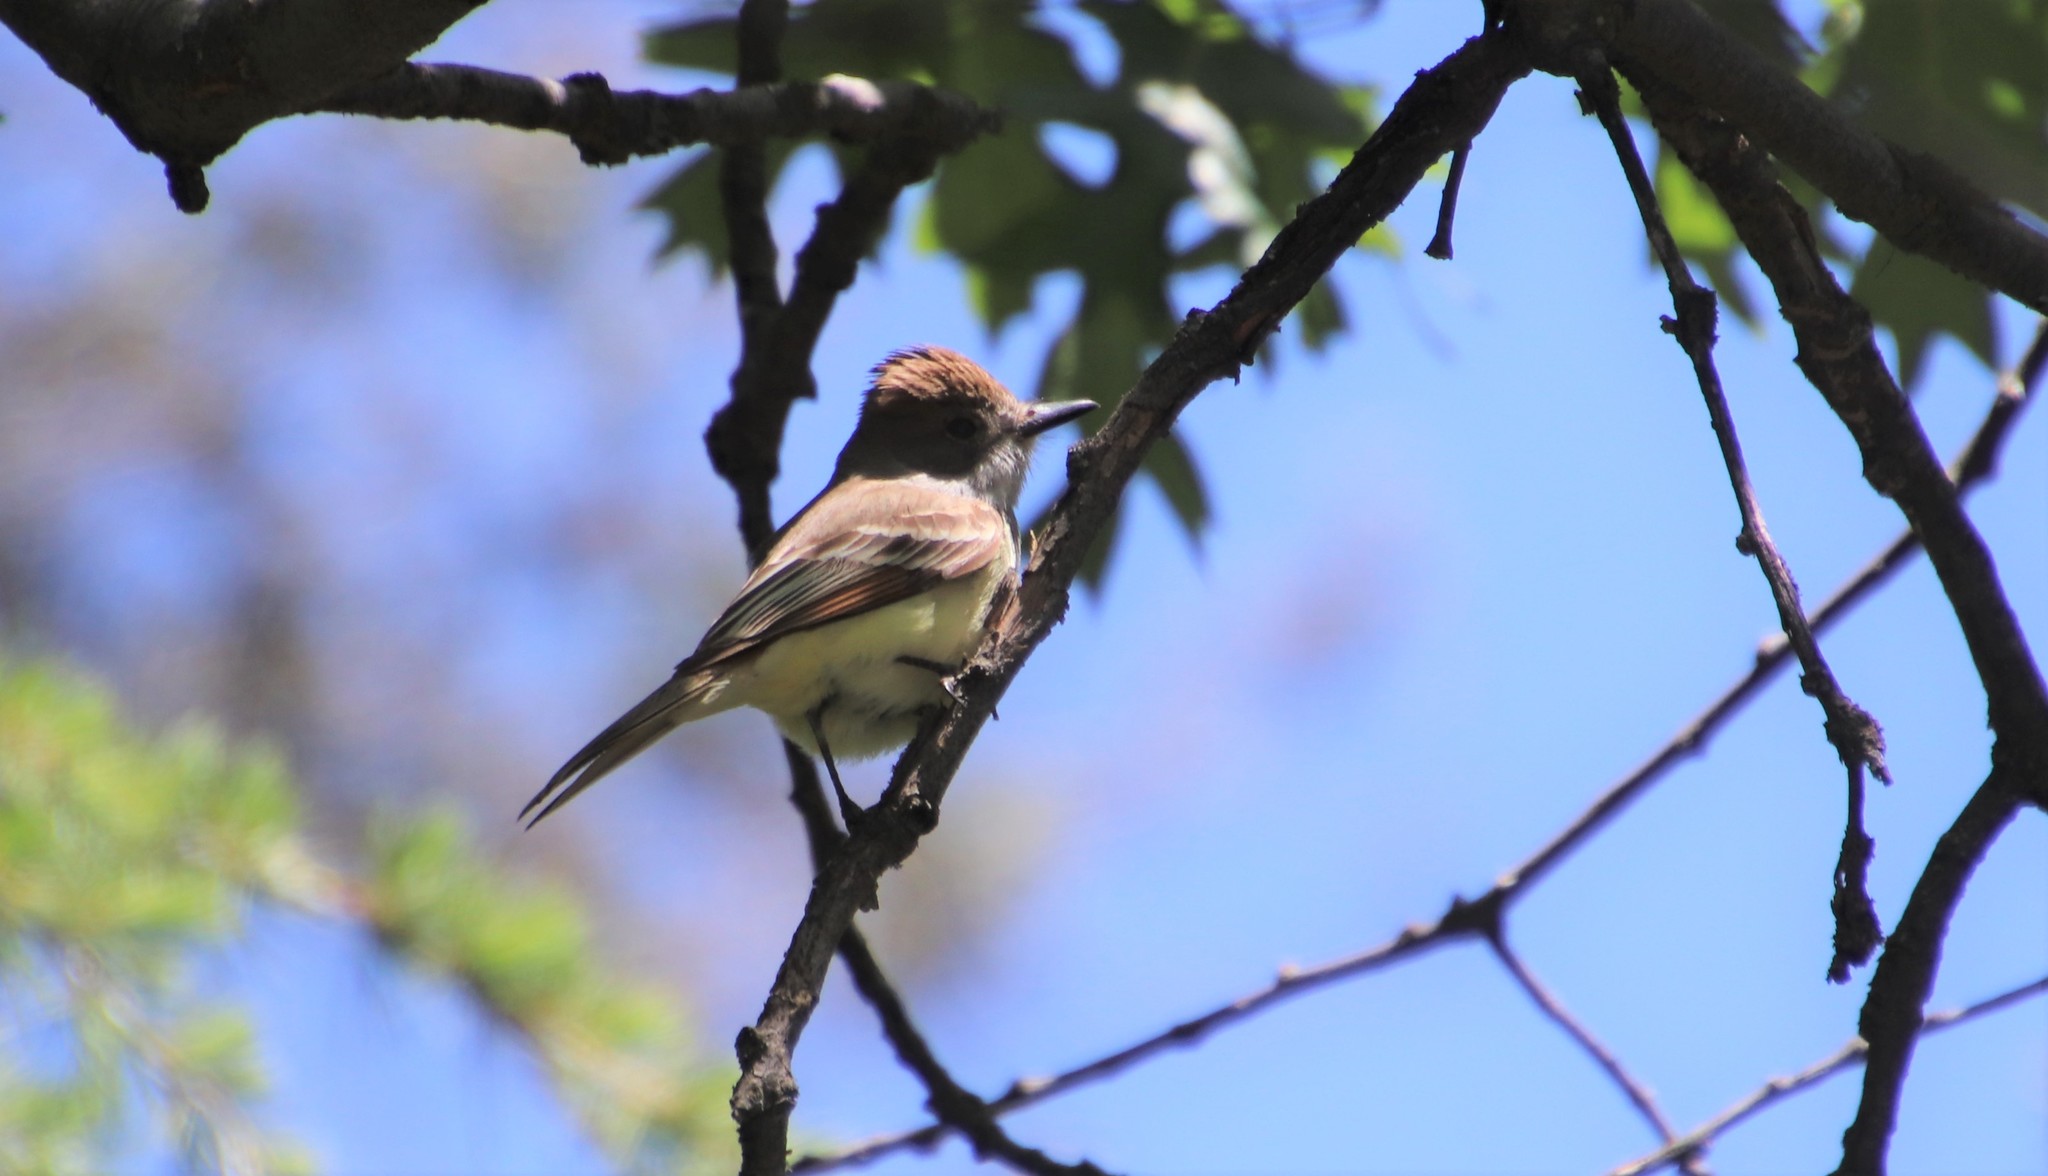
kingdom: Animalia
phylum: Chordata
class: Aves
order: Passeriformes
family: Tyrannidae
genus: Myiarchus
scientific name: Myiarchus cinerascens
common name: Ash-throated flycatcher
